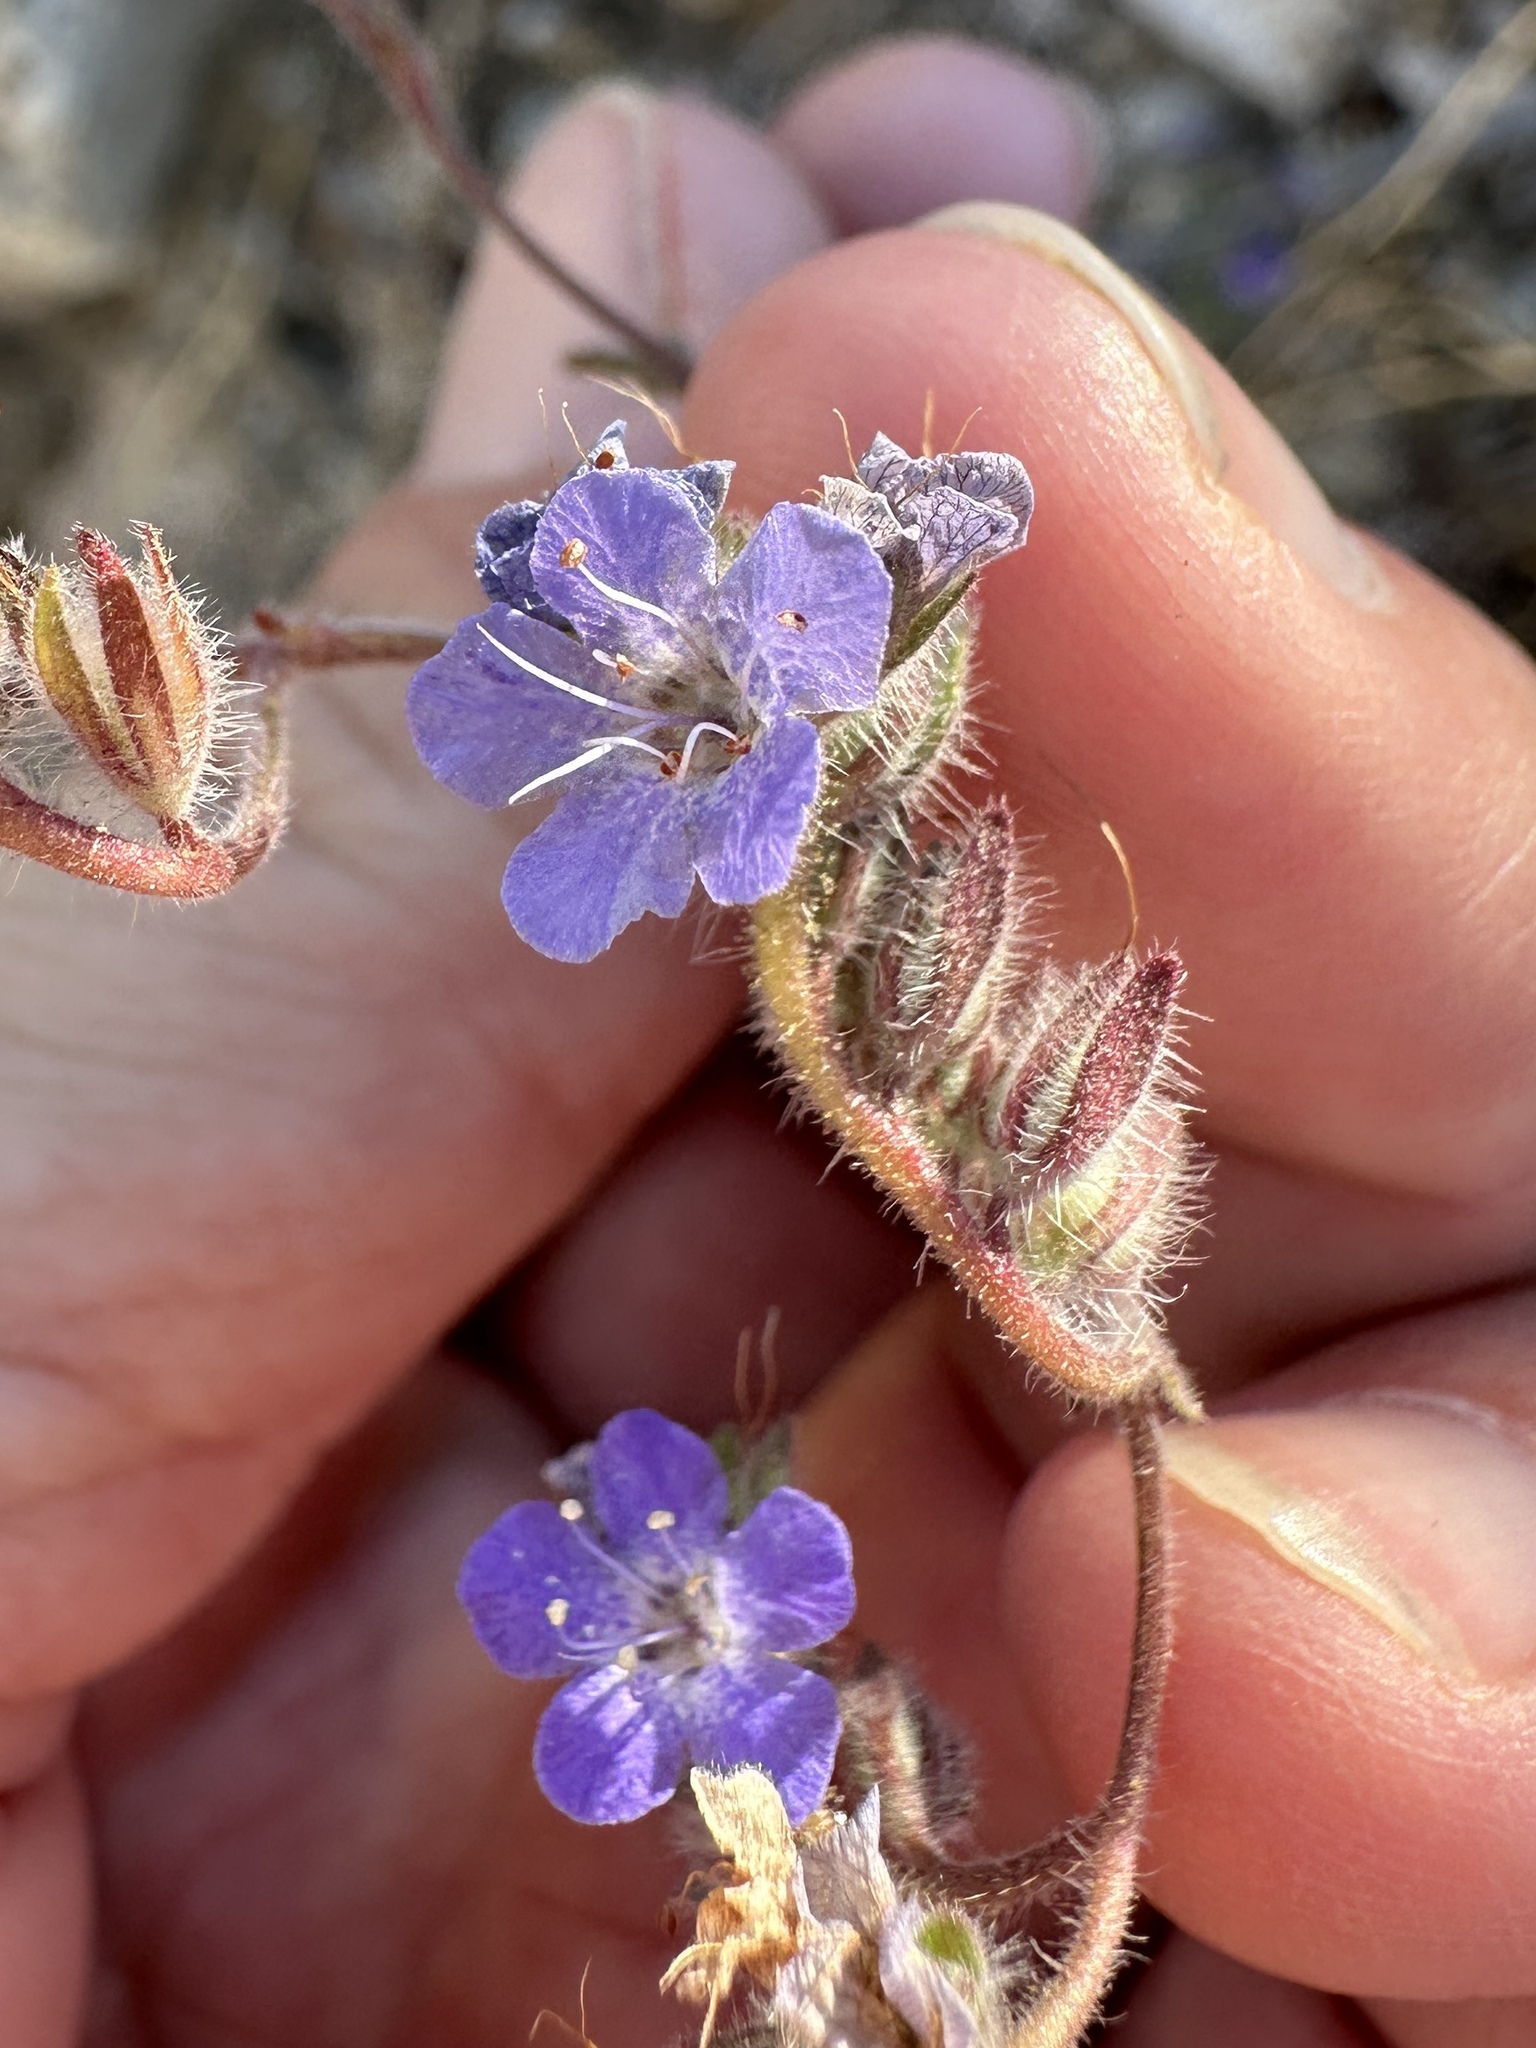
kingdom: Plantae
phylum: Tracheophyta
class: Magnoliopsida
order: Boraginales
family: Hydrophyllaceae
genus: Phacelia
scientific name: Phacelia distans
